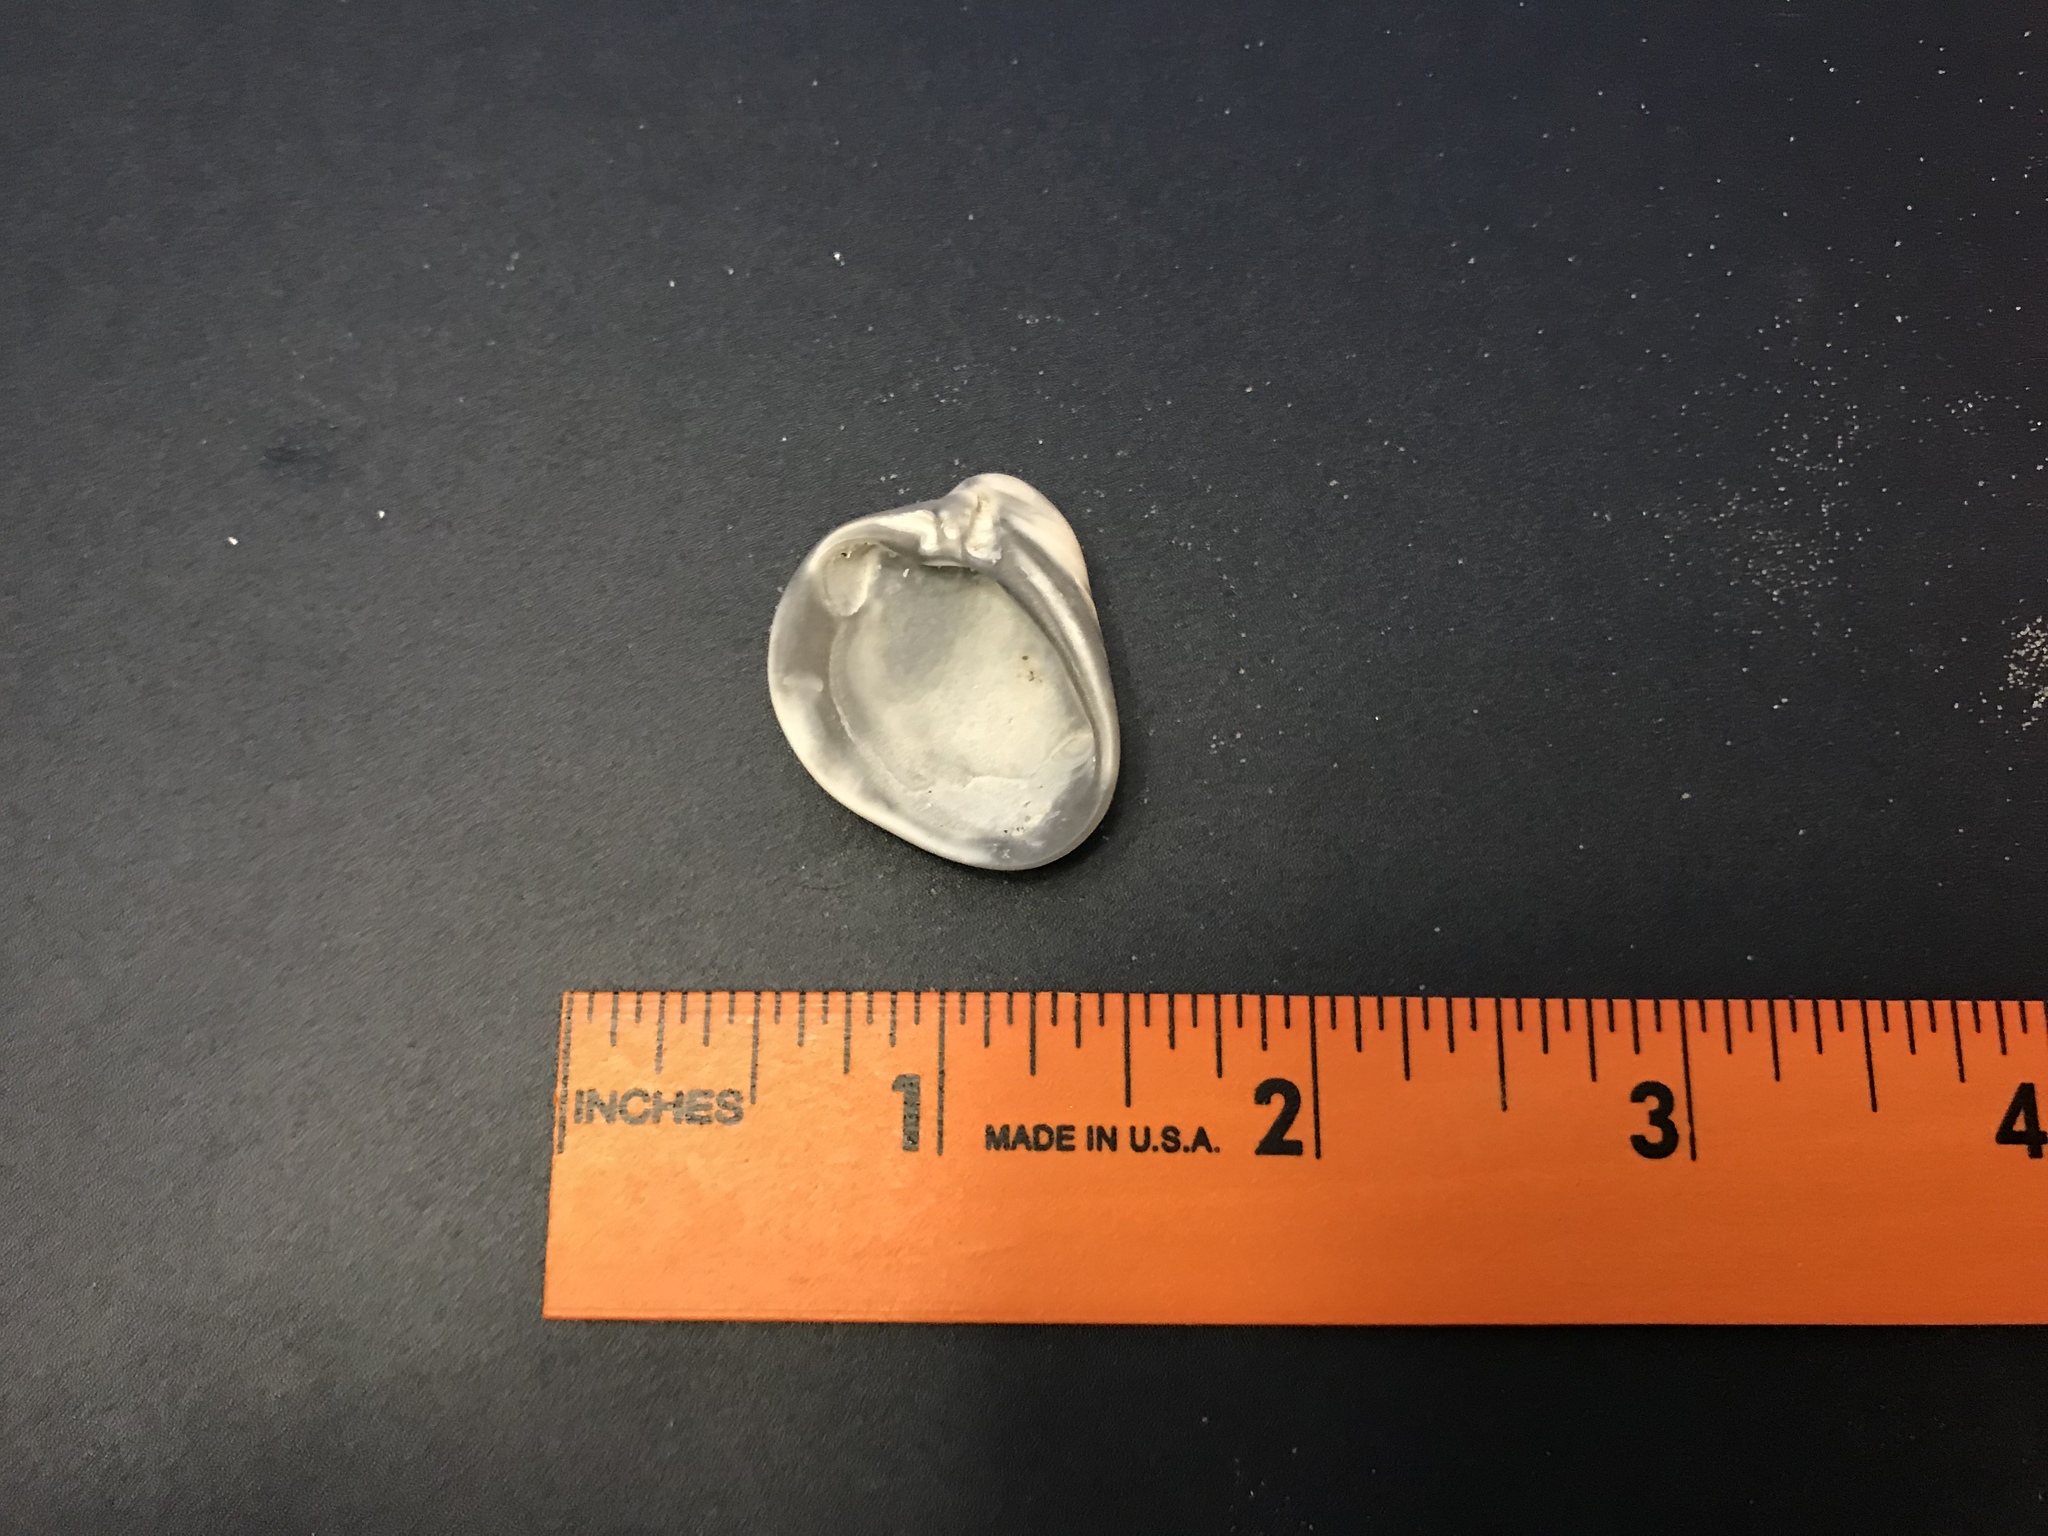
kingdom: Animalia
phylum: Mollusca
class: Bivalvia
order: Venerida
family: Mactridae
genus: Rangia
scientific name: Rangia cuneata
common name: Atlantic rangia
